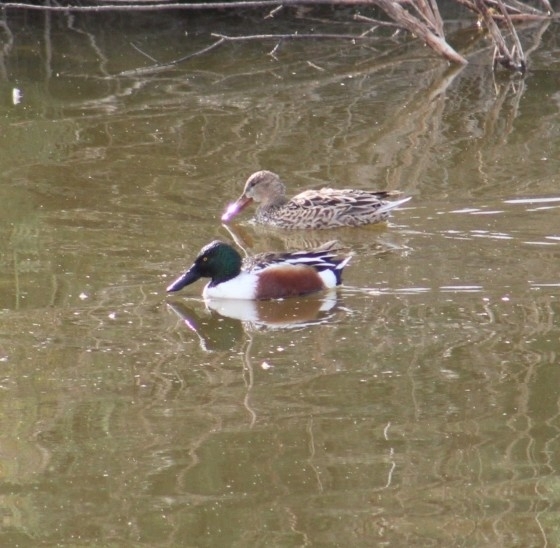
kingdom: Animalia
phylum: Chordata
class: Aves
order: Anseriformes
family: Anatidae
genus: Spatula
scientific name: Spatula clypeata
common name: Northern shoveler
